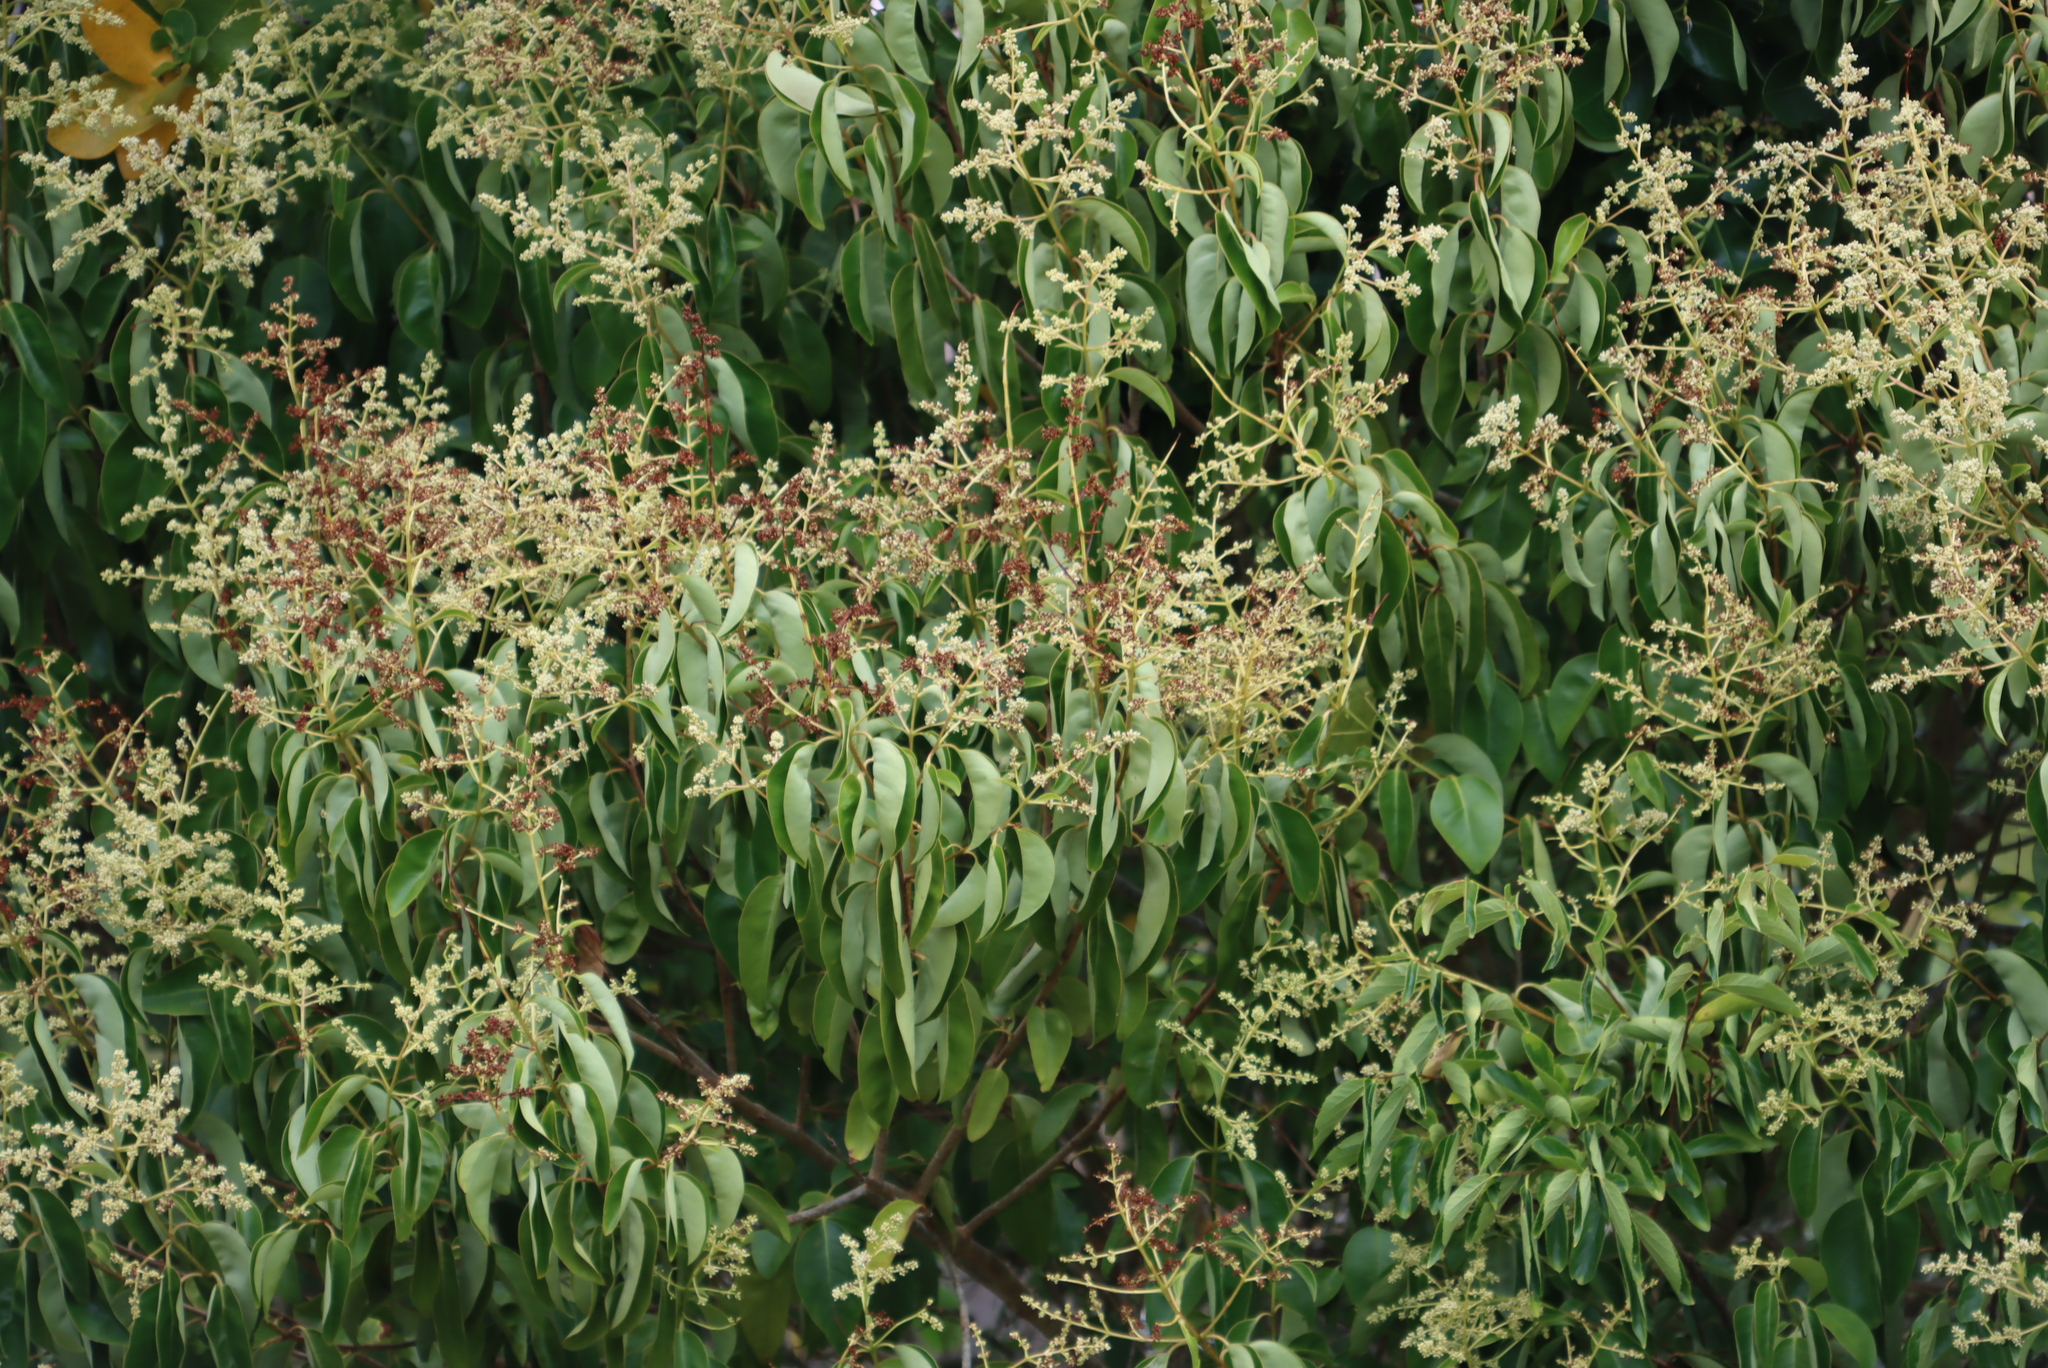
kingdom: Plantae
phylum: Tracheophyta
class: Magnoliopsida
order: Lamiales
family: Oleaceae
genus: Ligustrum
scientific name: Ligustrum lucidum
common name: Glossy privet
